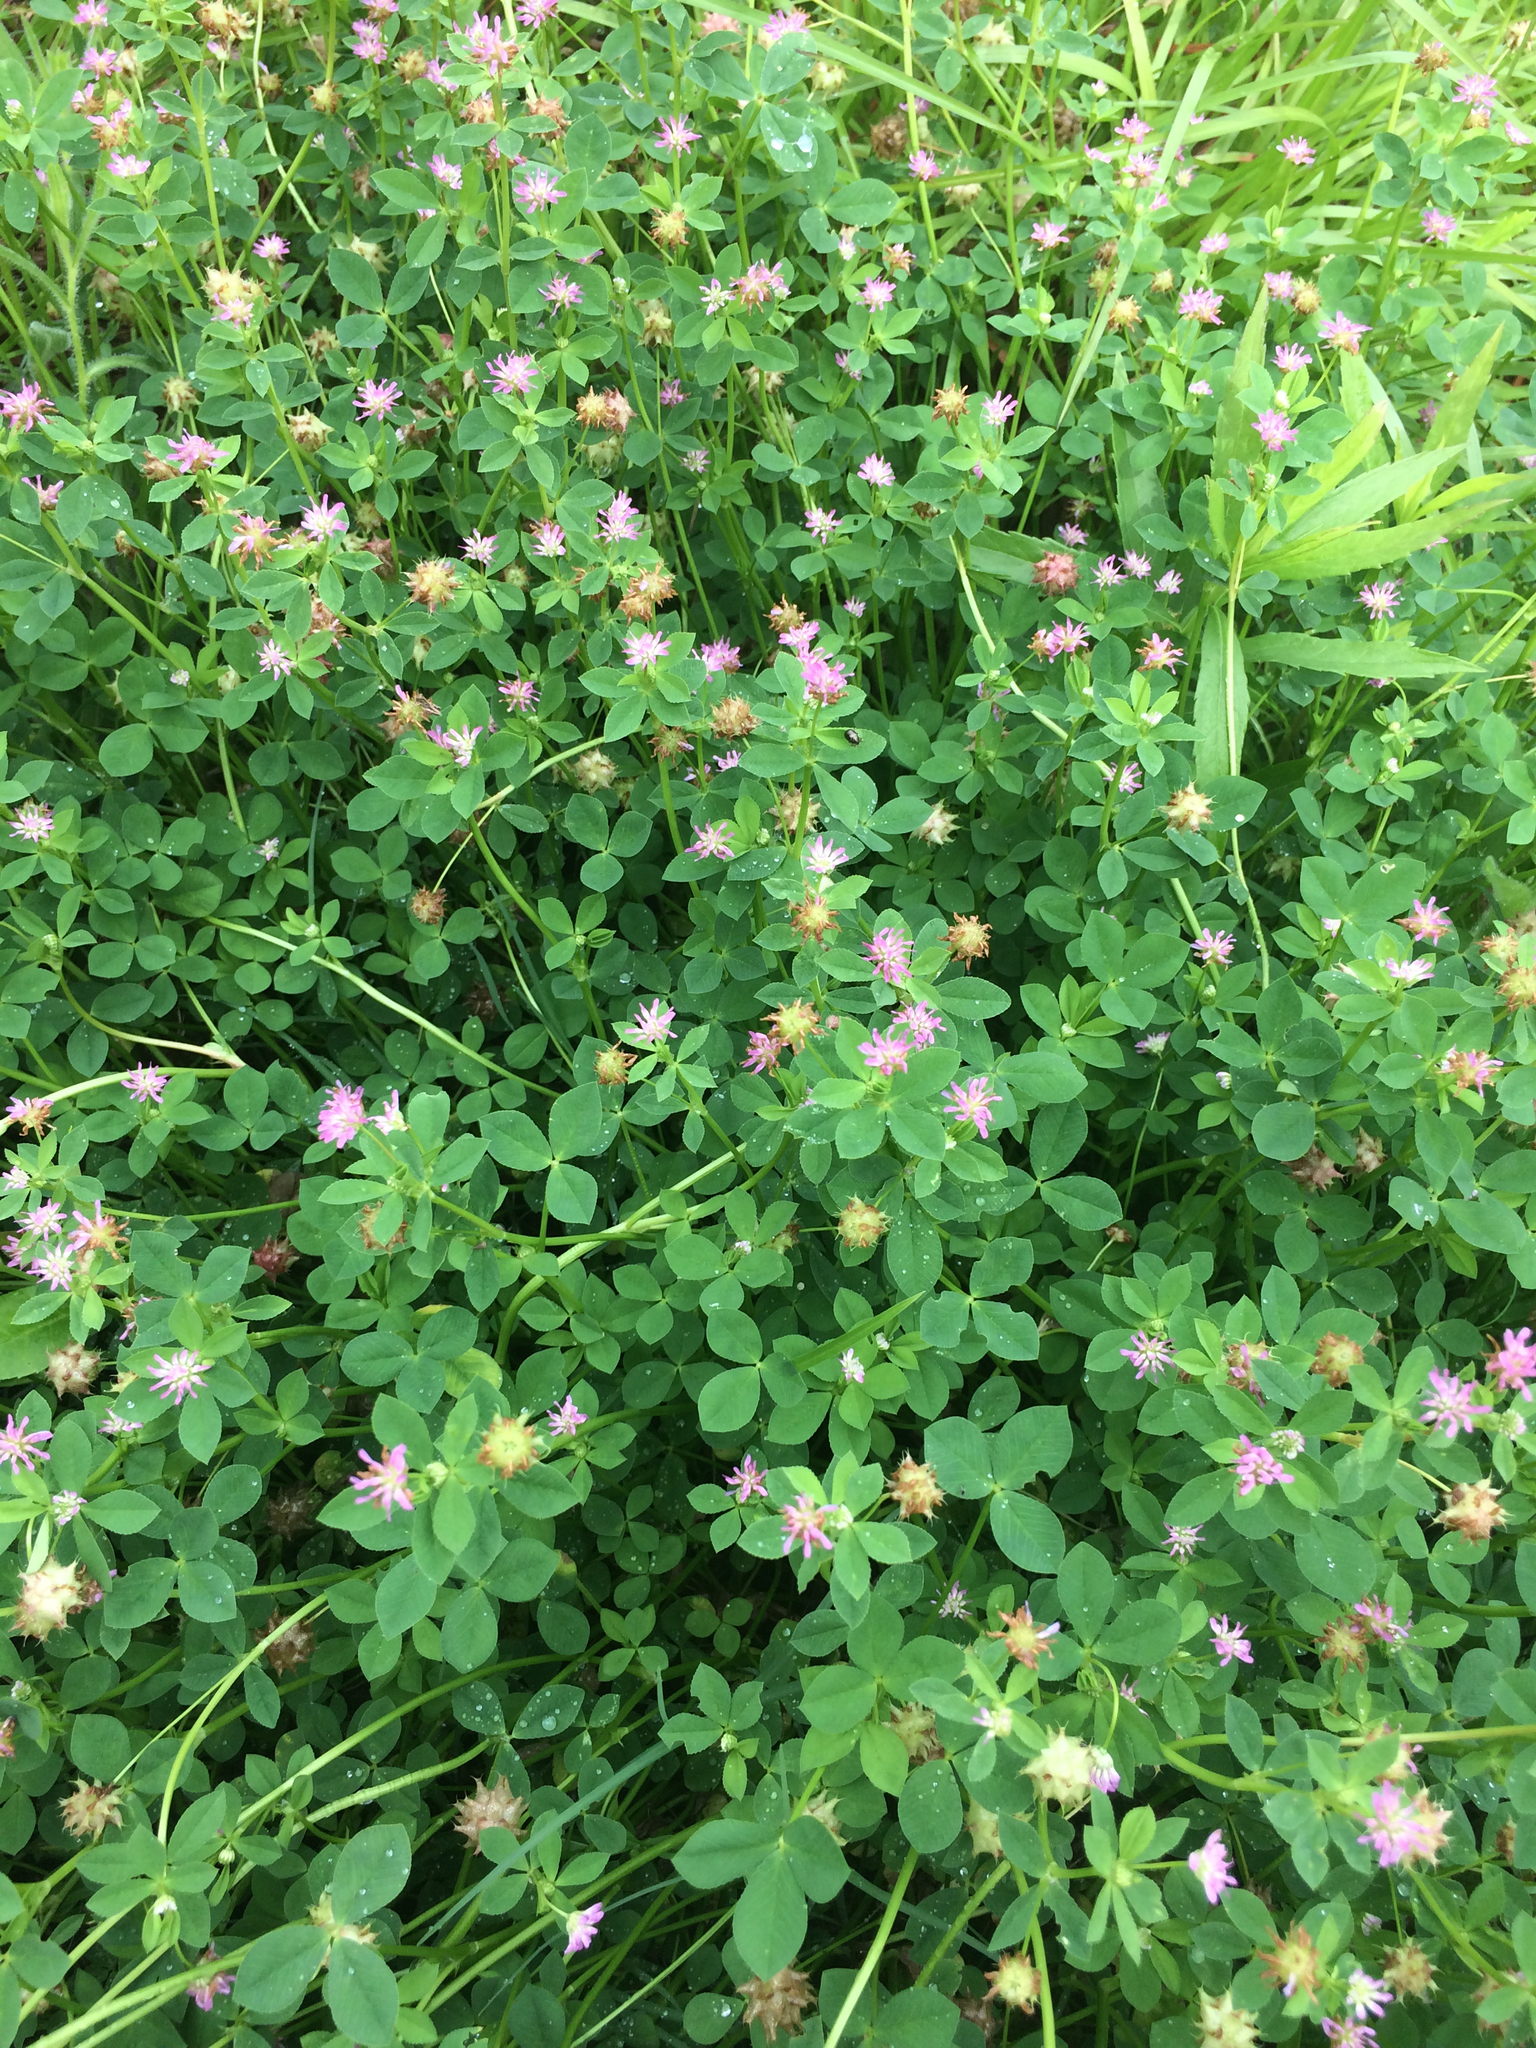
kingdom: Plantae
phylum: Tracheophyta
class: Magnoliopsida
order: Fabales
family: Fabaceae
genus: Trifolium
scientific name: Trifolium resupinatum
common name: Reversed clover
